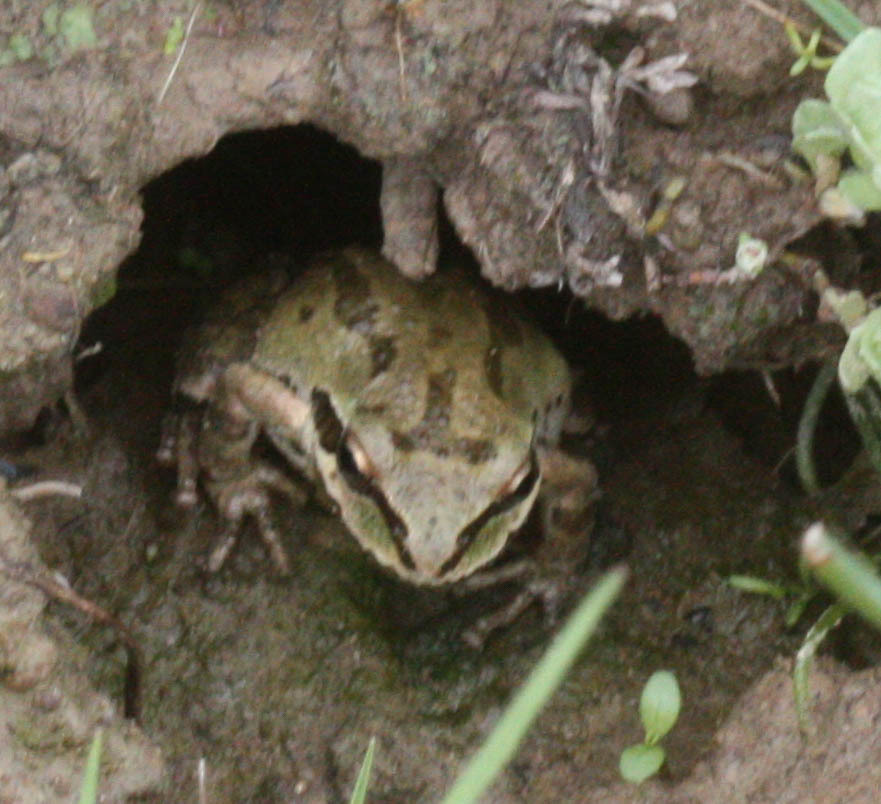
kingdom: Animalia
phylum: Chordata
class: Amphibia
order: Anura
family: Hylidae
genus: Pseudacris
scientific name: Pseudacris regilla
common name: Pacific chorus frog
